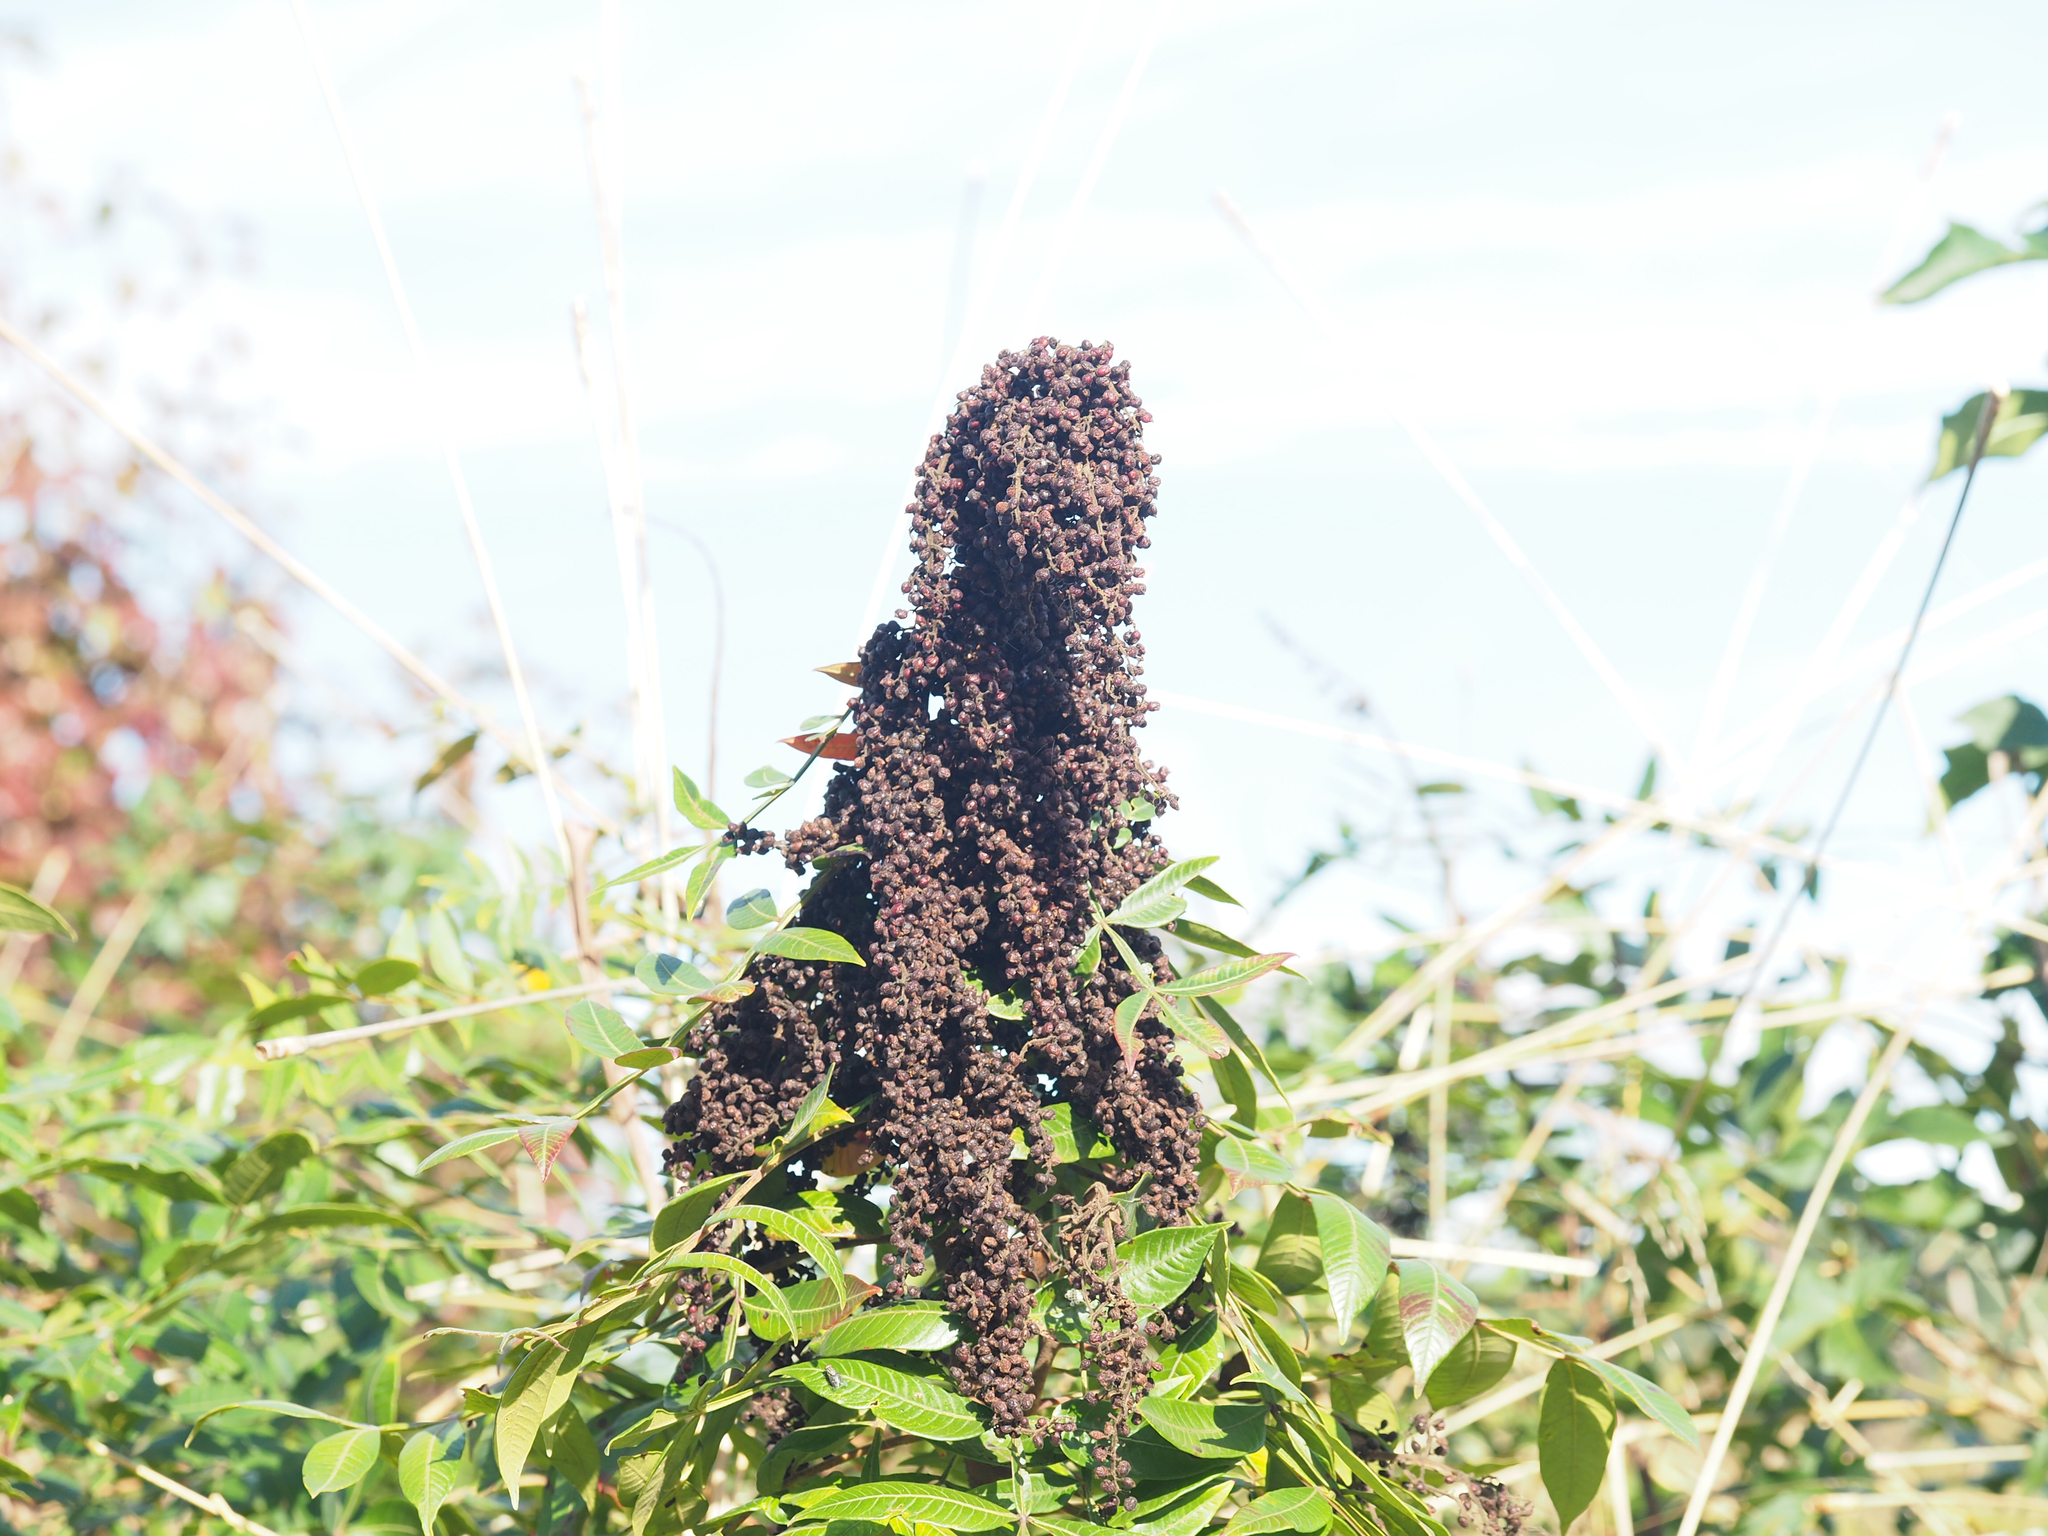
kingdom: Plantae
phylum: Tracheophyta
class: Magnoliopsida
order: Sapindales
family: Anacardiaceae
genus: Rhus
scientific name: Rhus copallina
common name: Shining sumac
